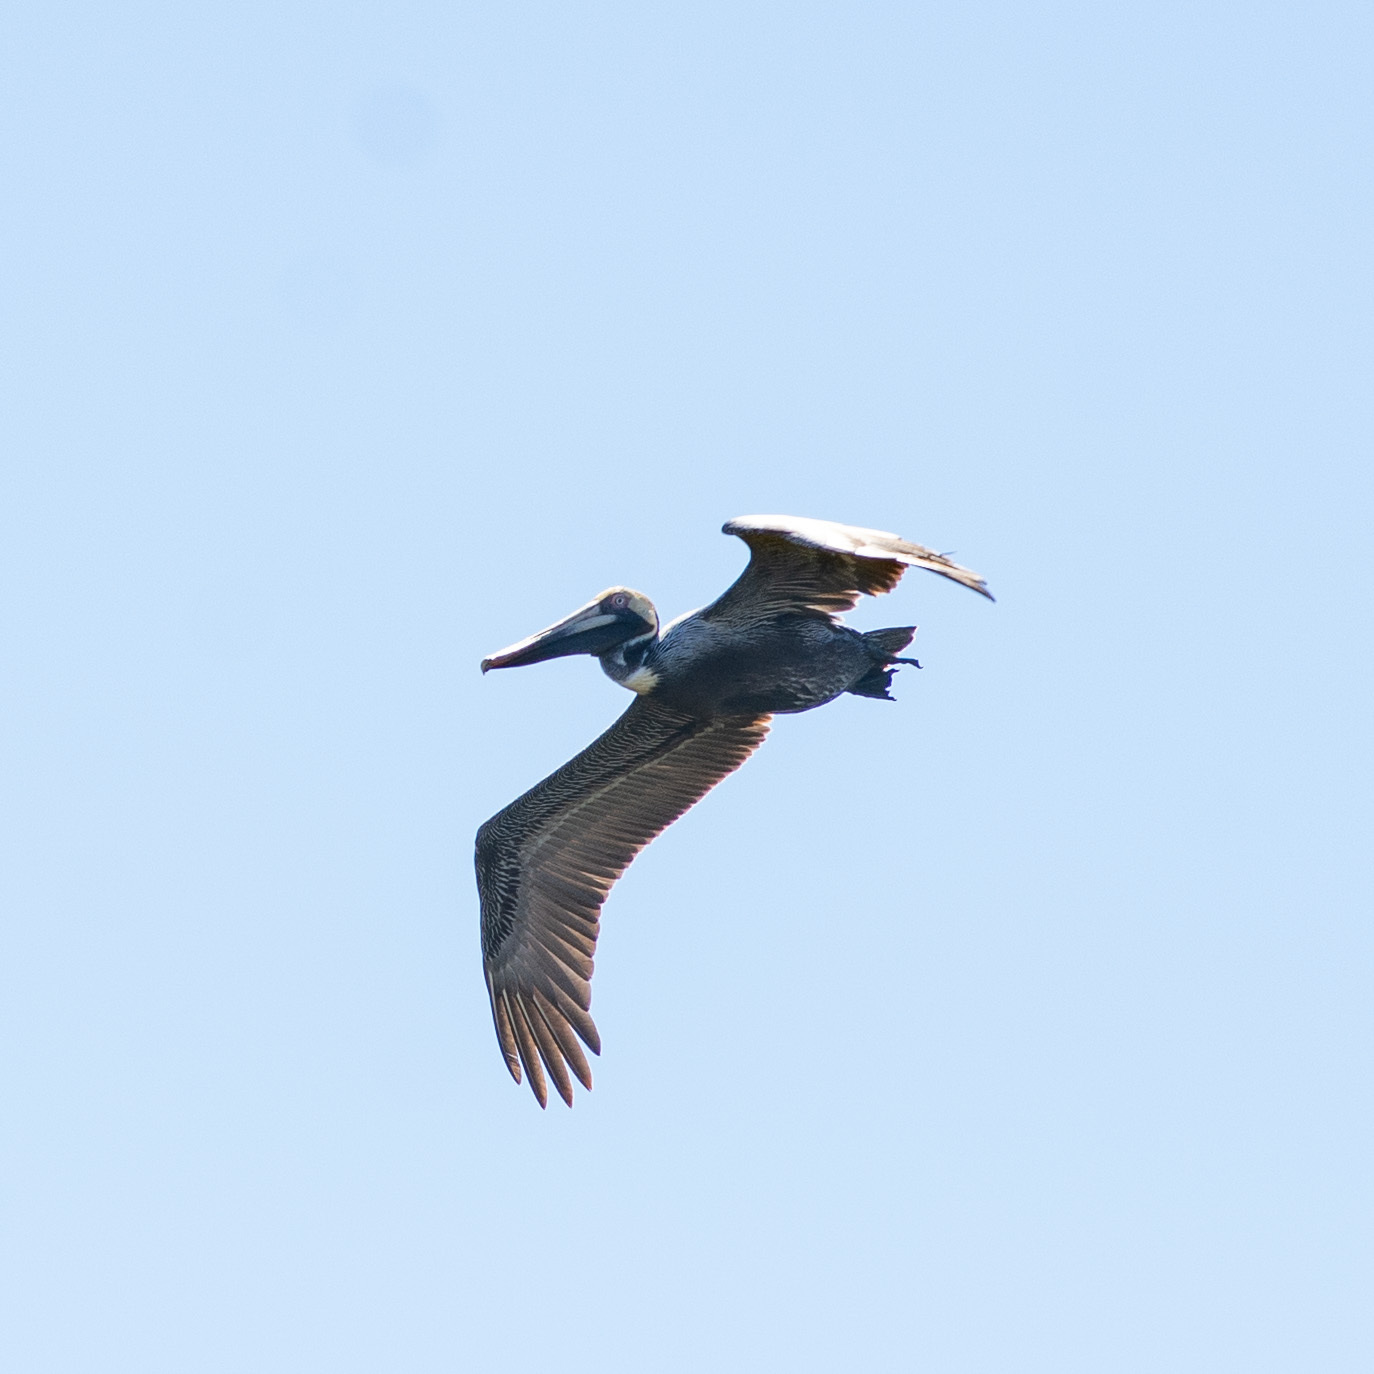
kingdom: Animalia
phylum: Chordata
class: Aves
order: Pelecaniformes
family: Pelecanidae
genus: Pelecanus
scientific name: Pelecanus occidentalis
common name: Brown pelican
